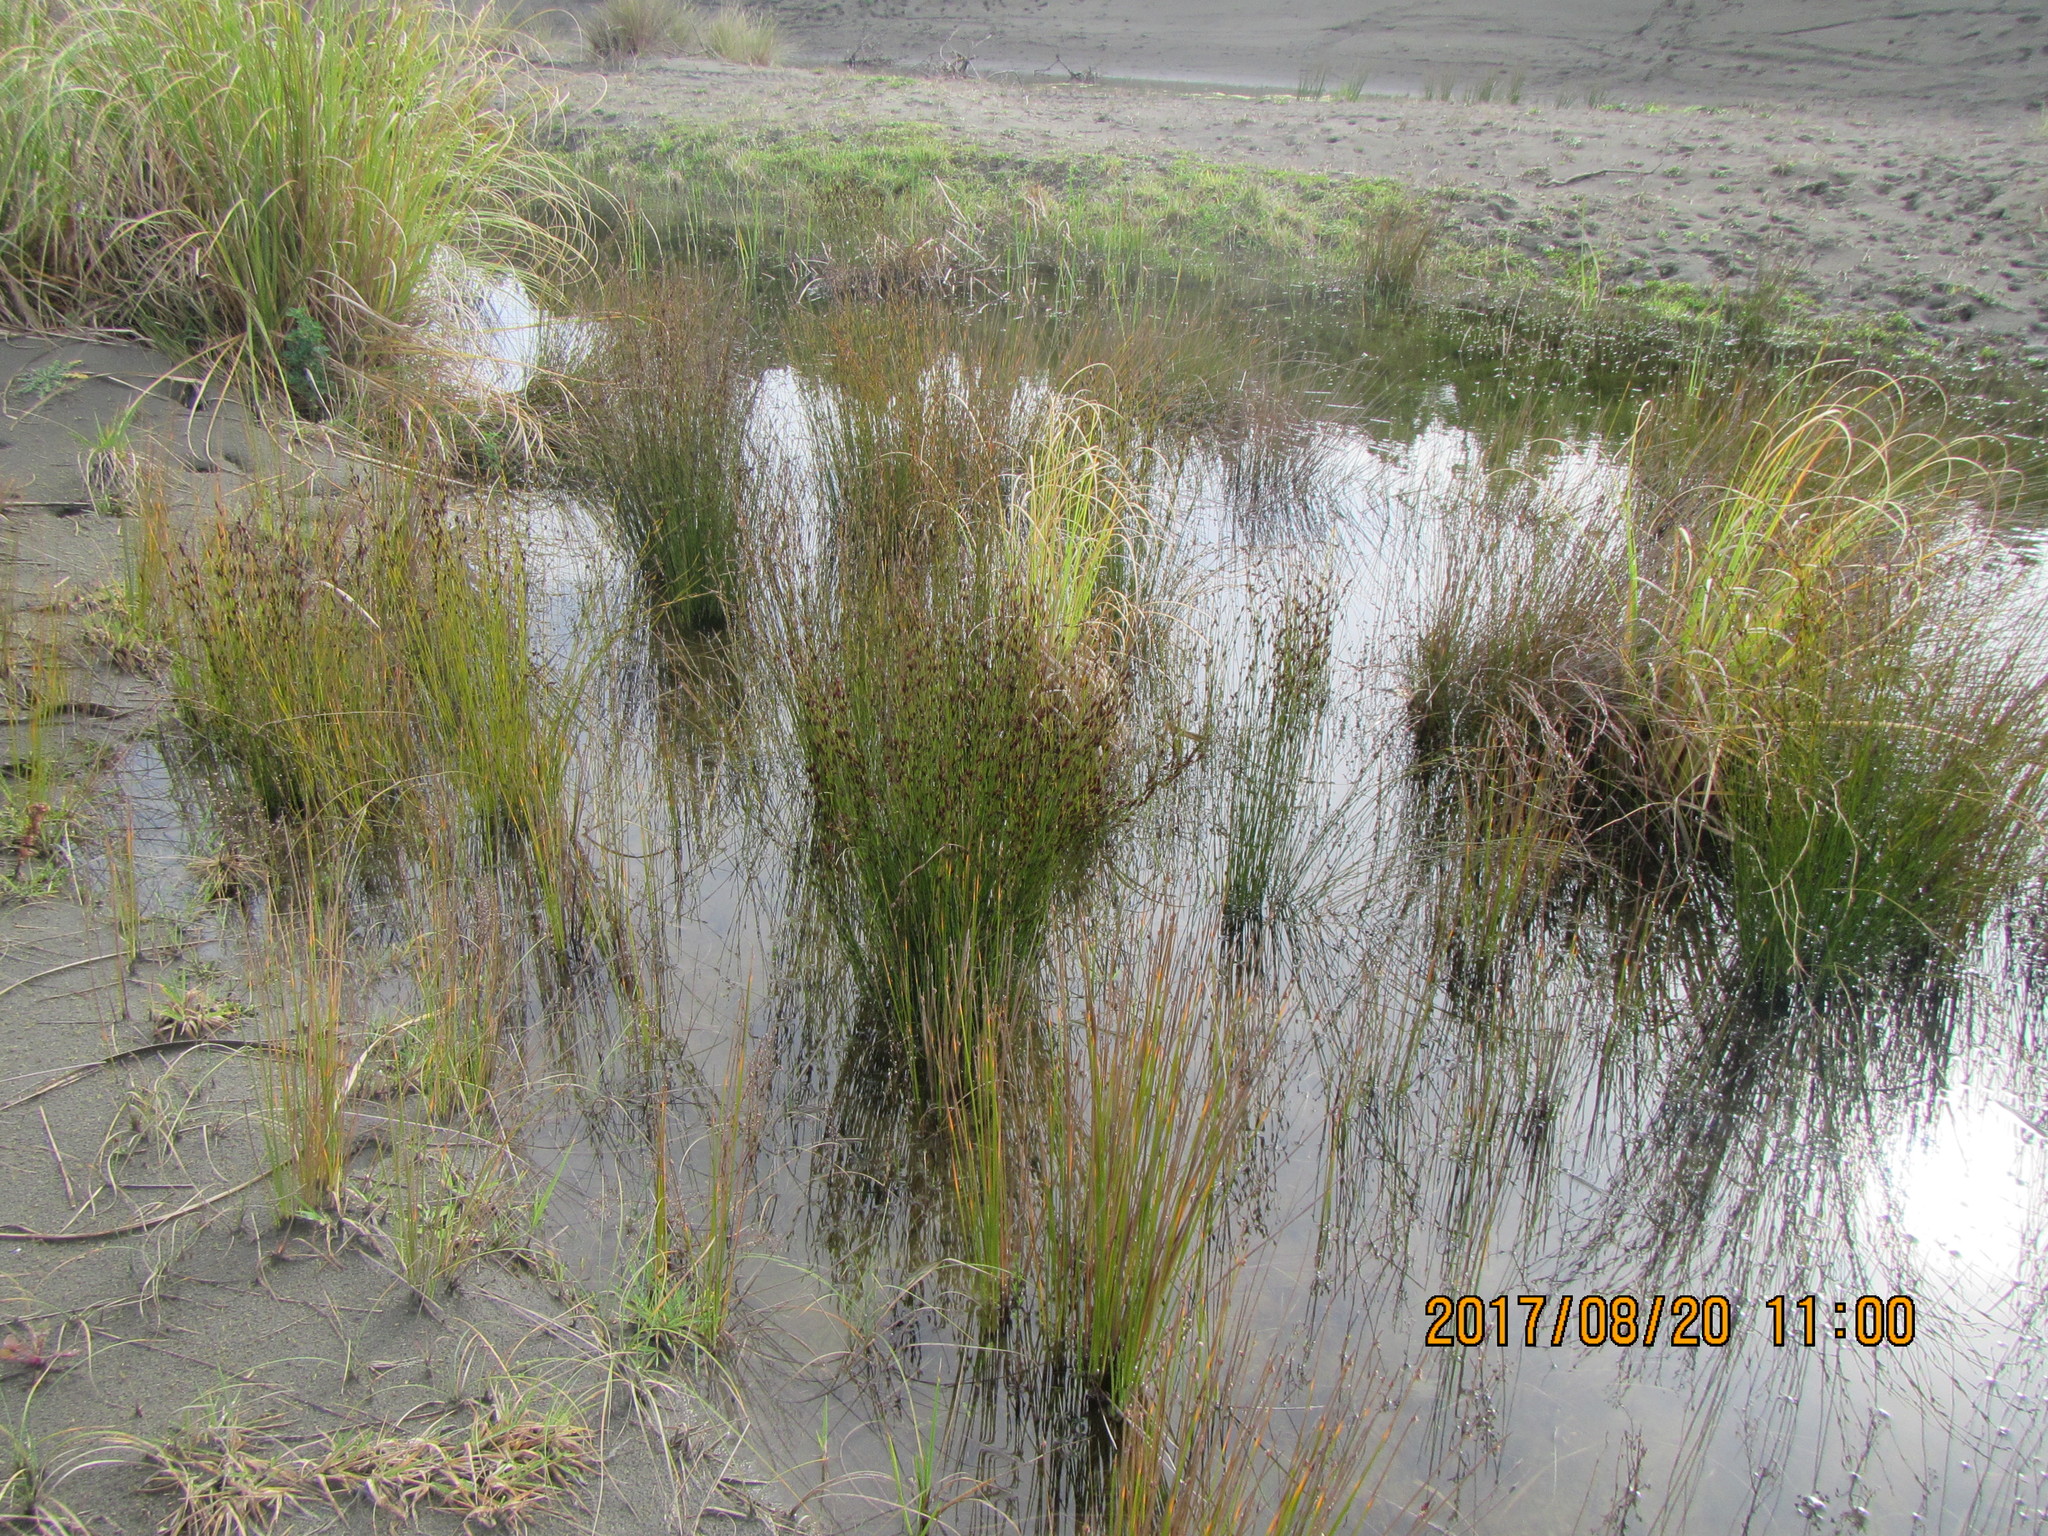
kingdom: Plantae
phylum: Tracheophyta
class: Liliopsida
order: Poales
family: Restionaceae
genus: Apodasmia
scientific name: Apodasmia similis
